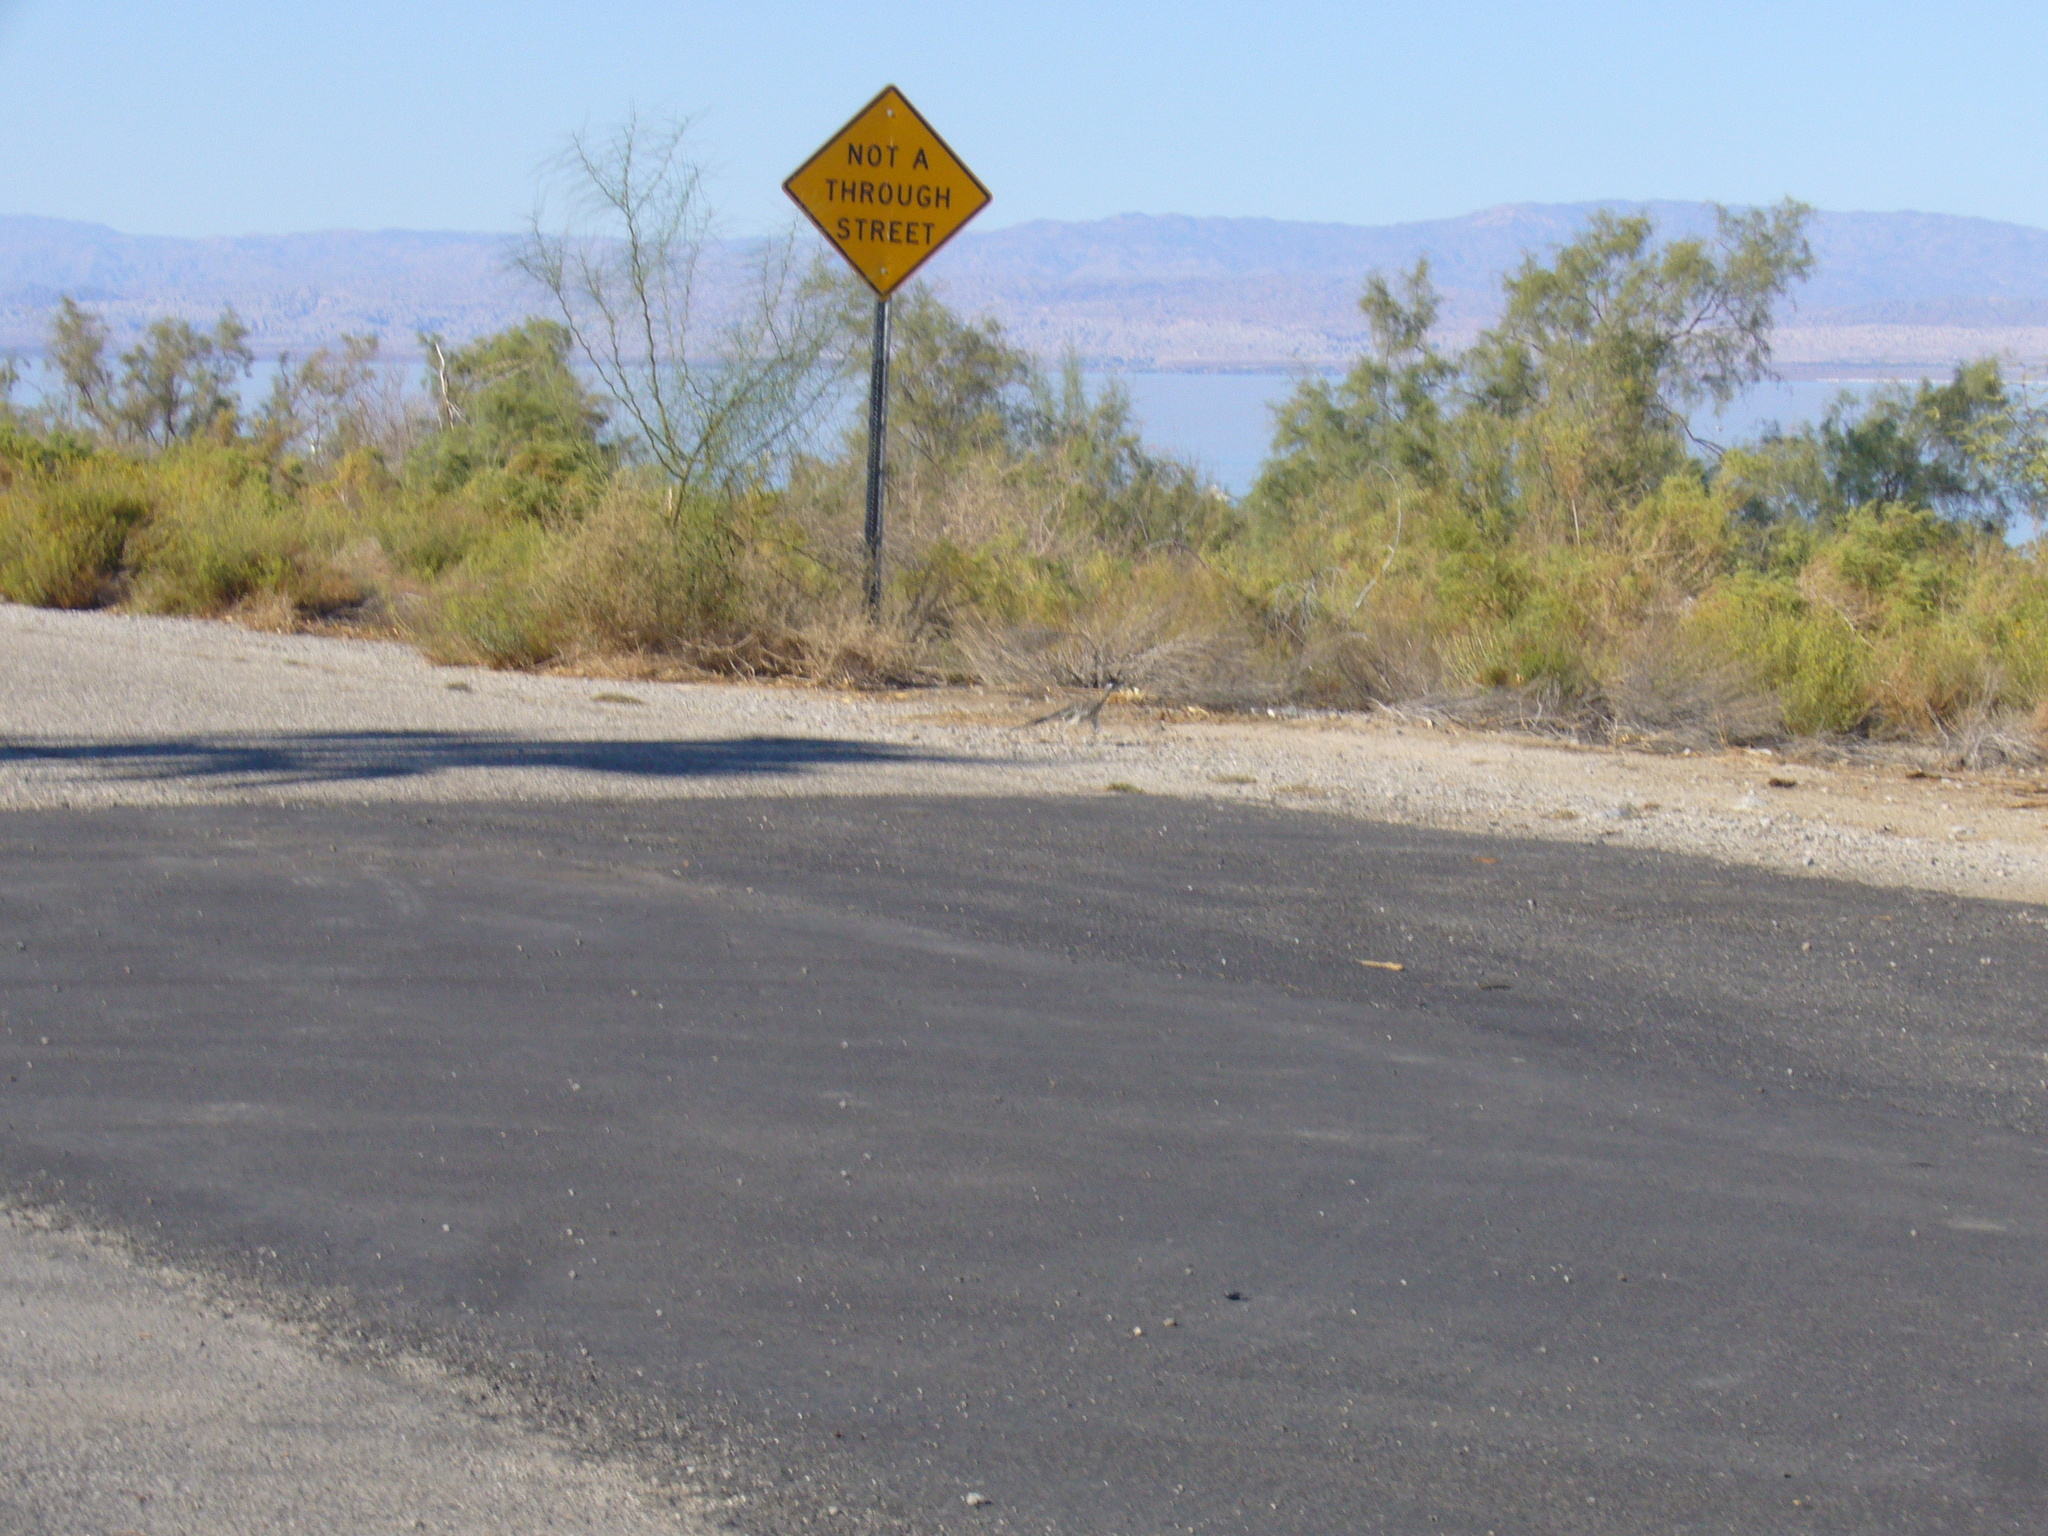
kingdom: Animalia
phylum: Chordata
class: Aves
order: Cuculiformes
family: Cuculidae
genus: Geococcyx
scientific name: Geococcyx californianus
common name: Greater roadrunner
